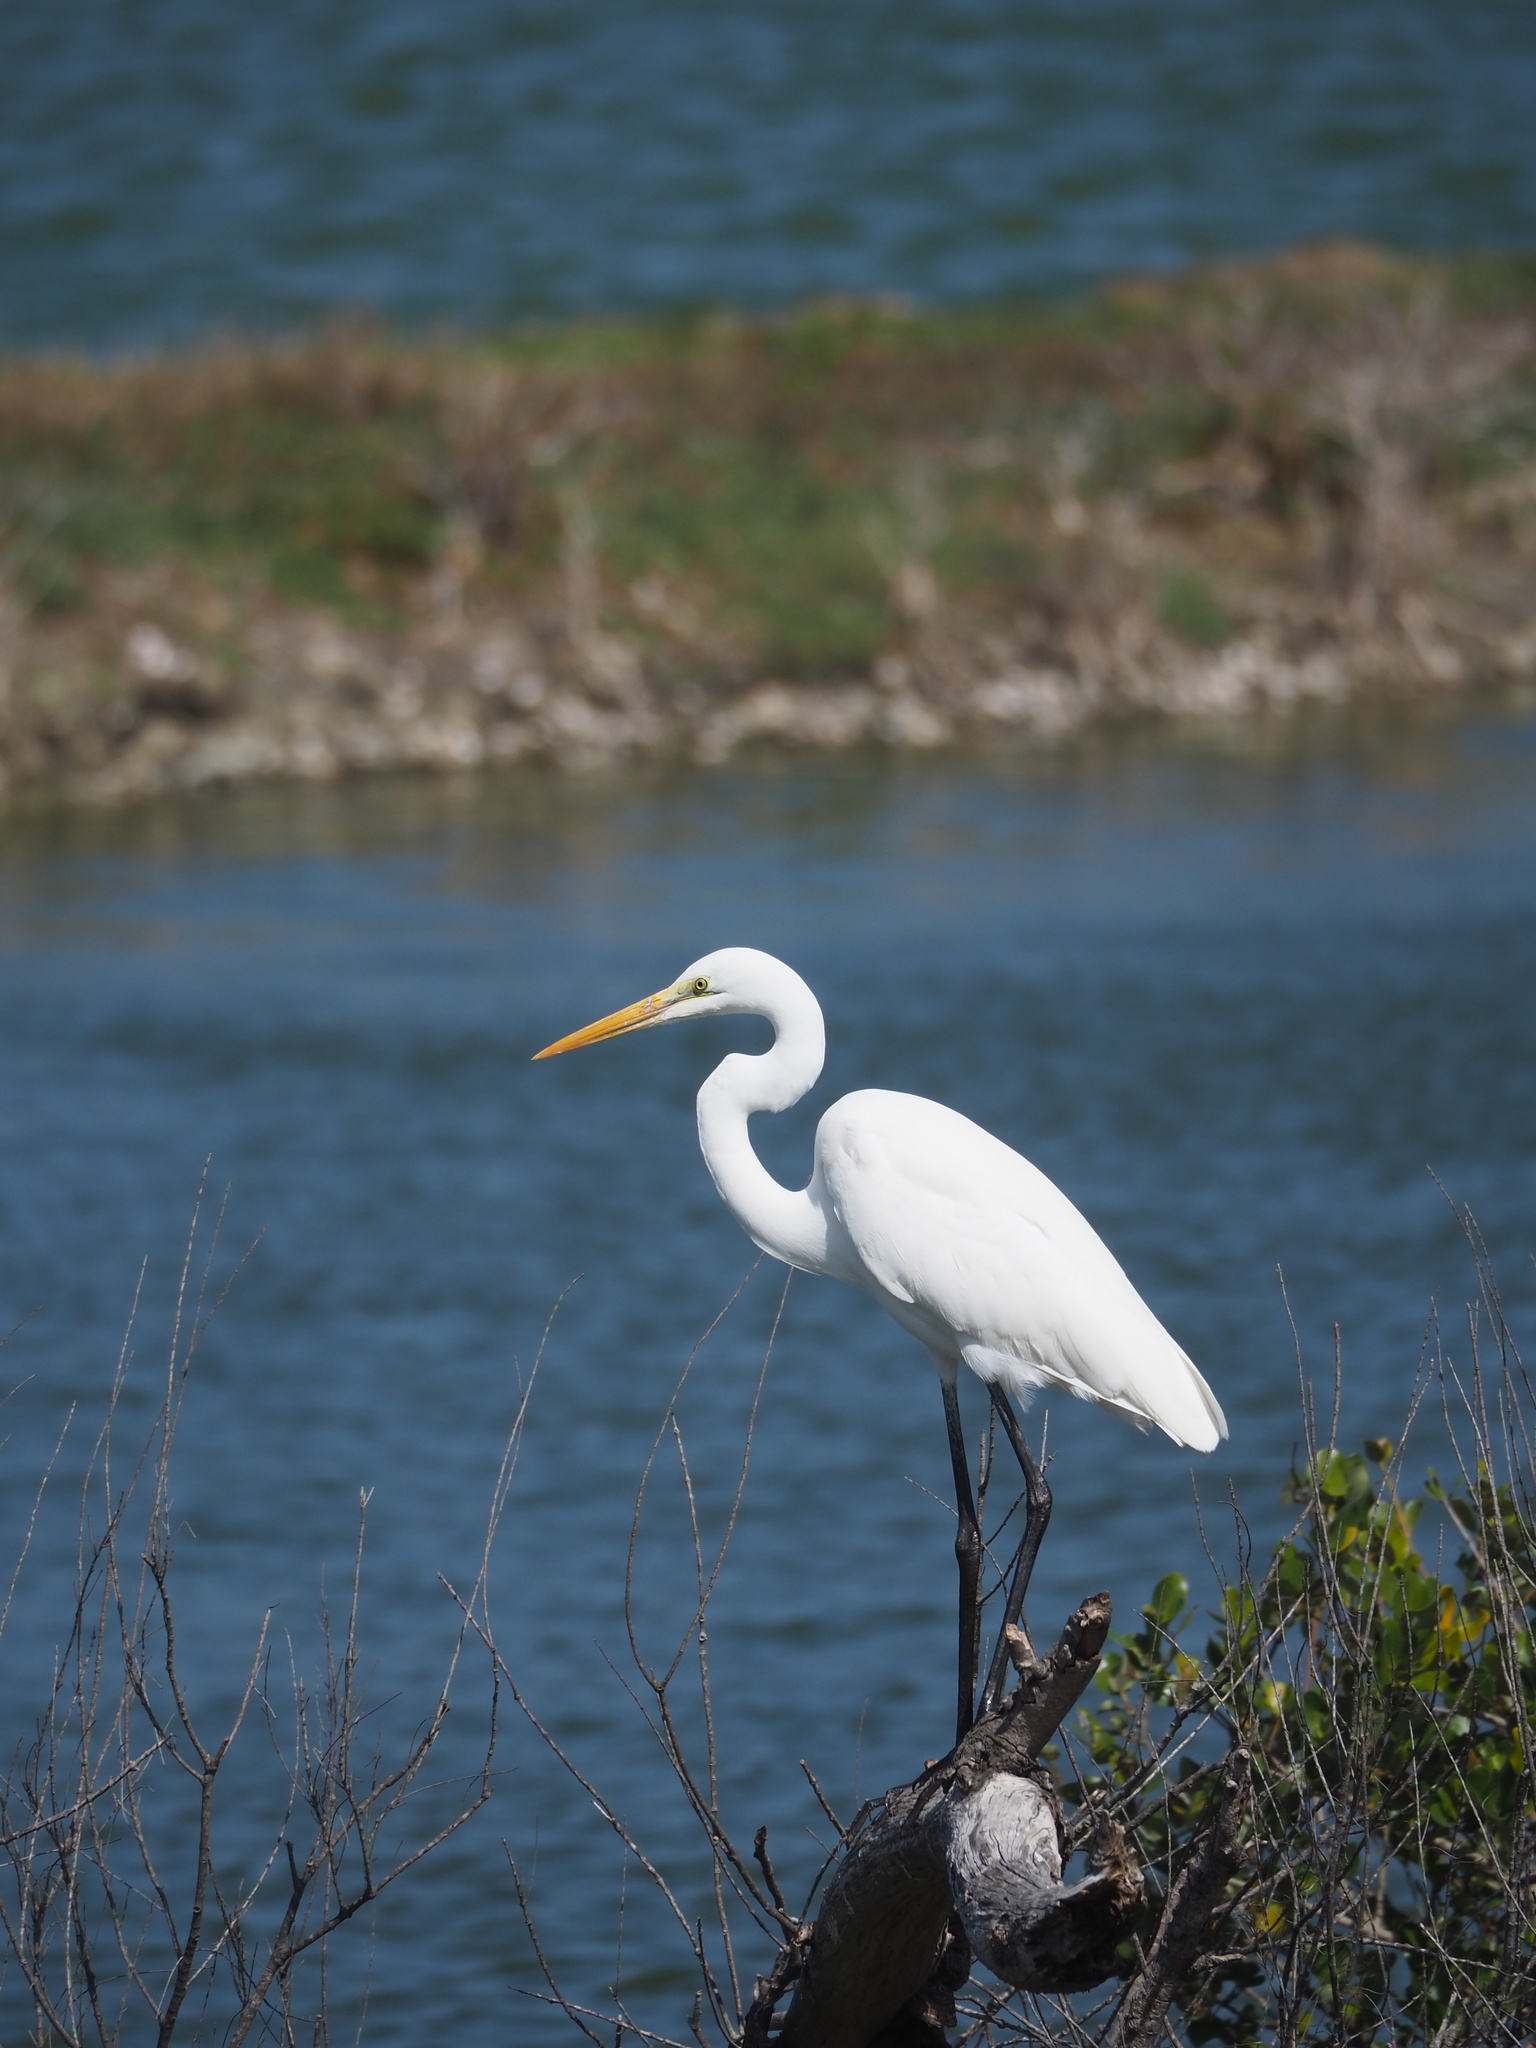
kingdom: Animalia
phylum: Chordata
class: Aves
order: Pelecaniformes
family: Ardeidae
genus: Ardea
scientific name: Ardea alba
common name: Great egret
